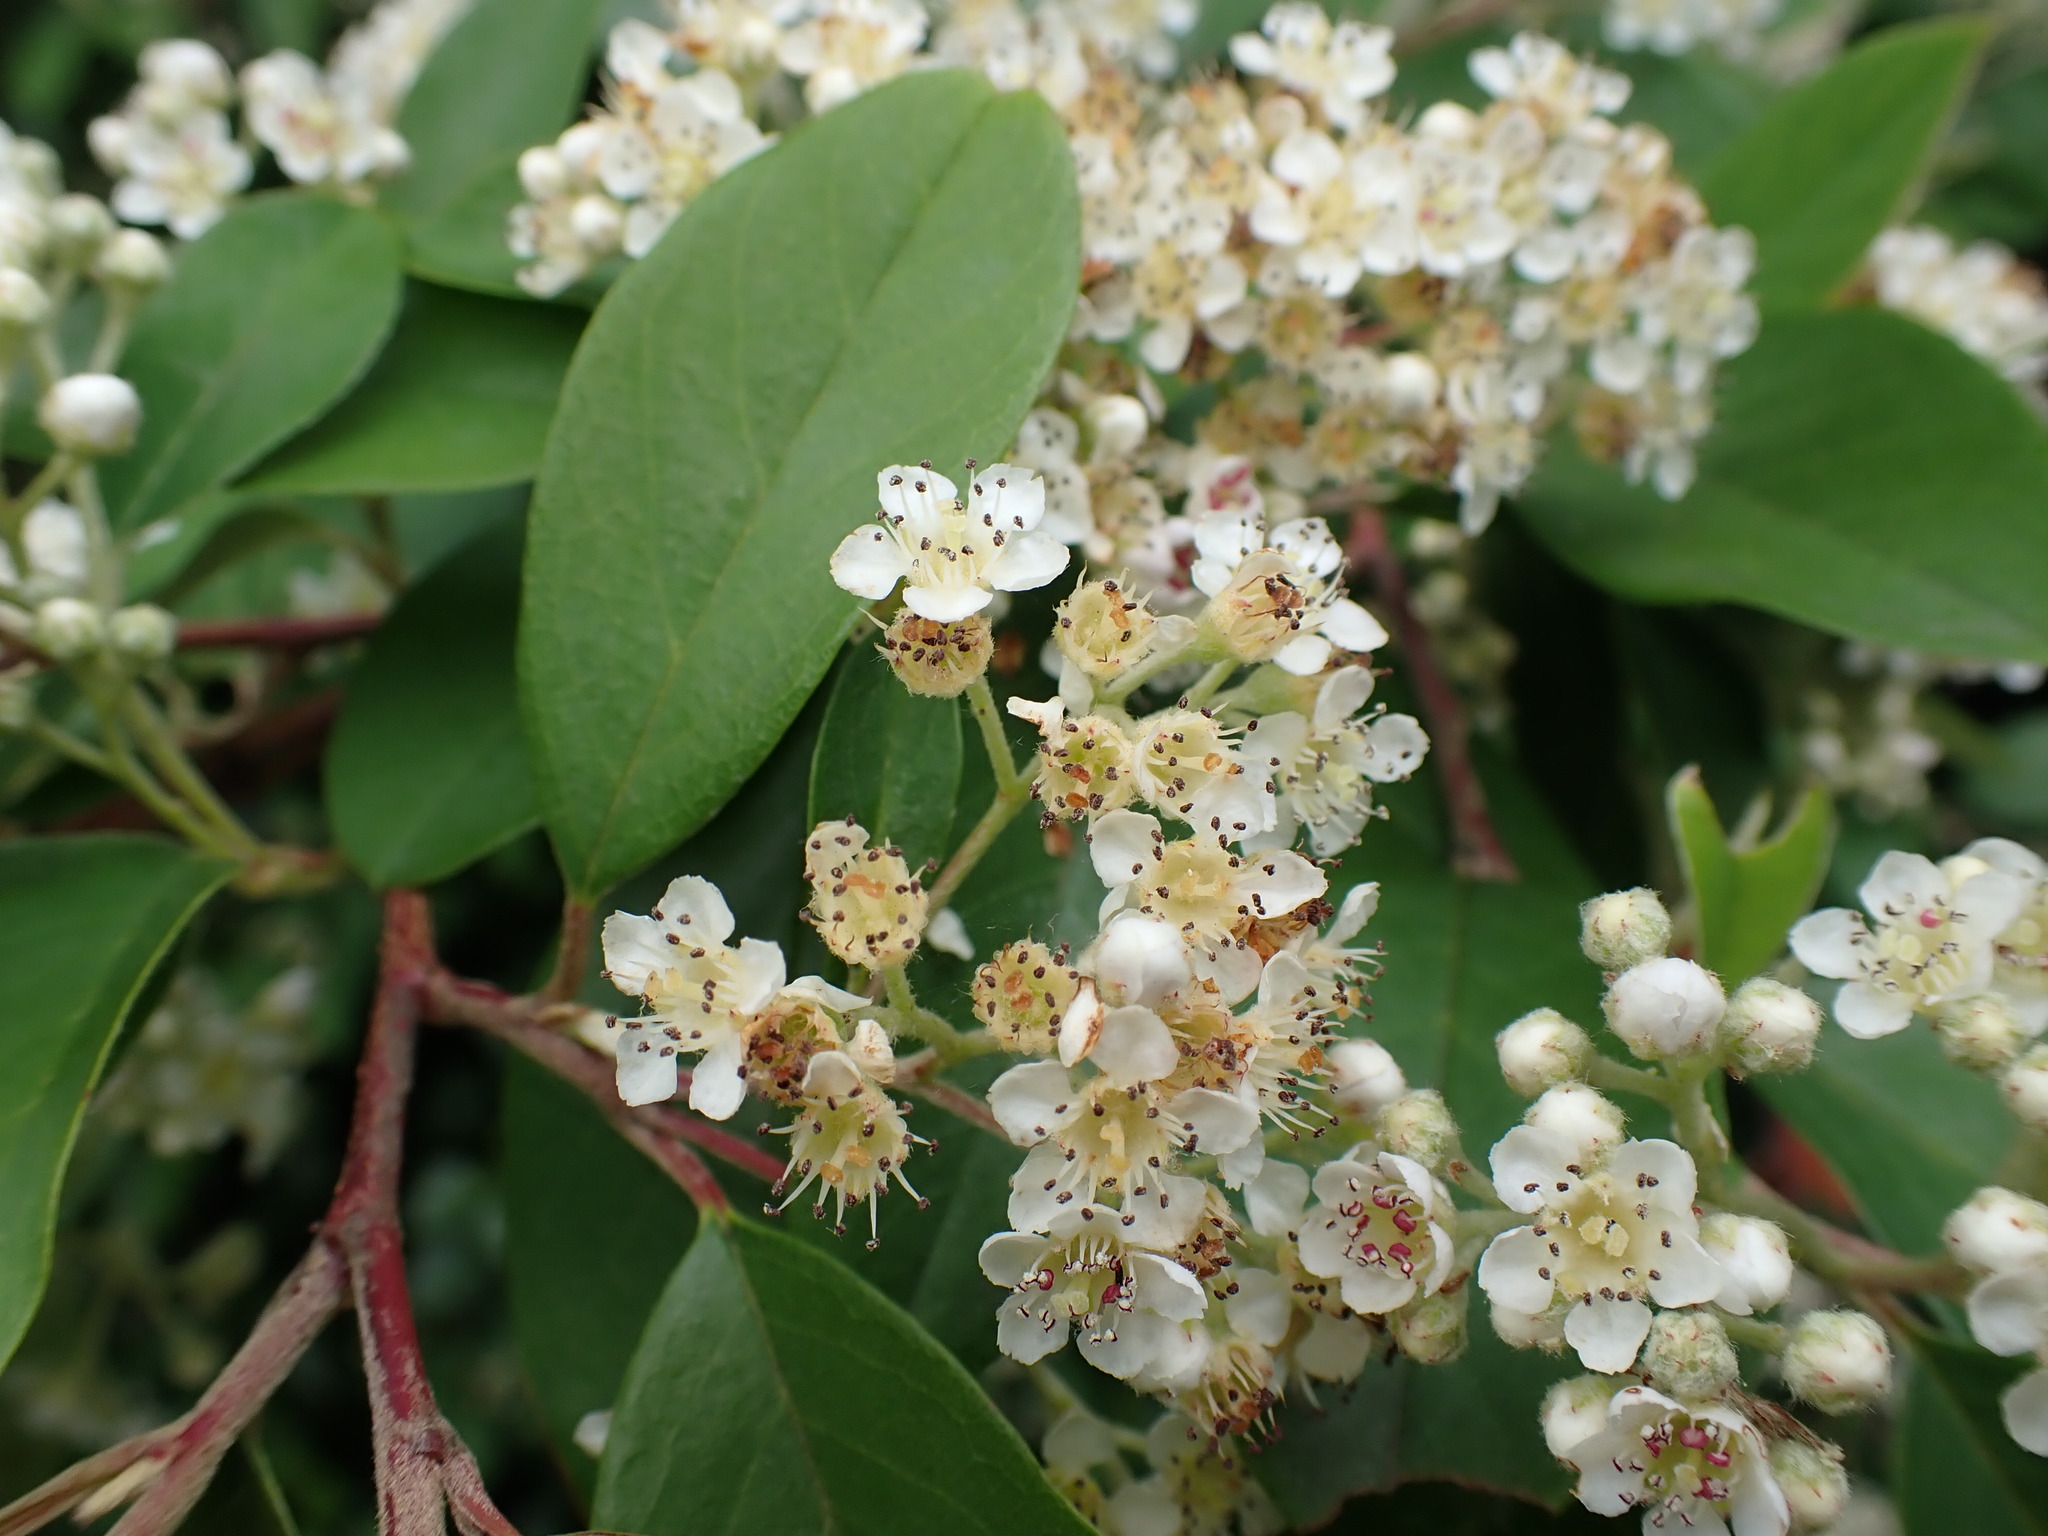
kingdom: Plantae
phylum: Tracheophyta
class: Magnoliopsida
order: Rosales
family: Rosaceae
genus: Cotoneaster
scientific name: Cotoneaster glaucophyllus
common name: Glaucous cotoneaster
